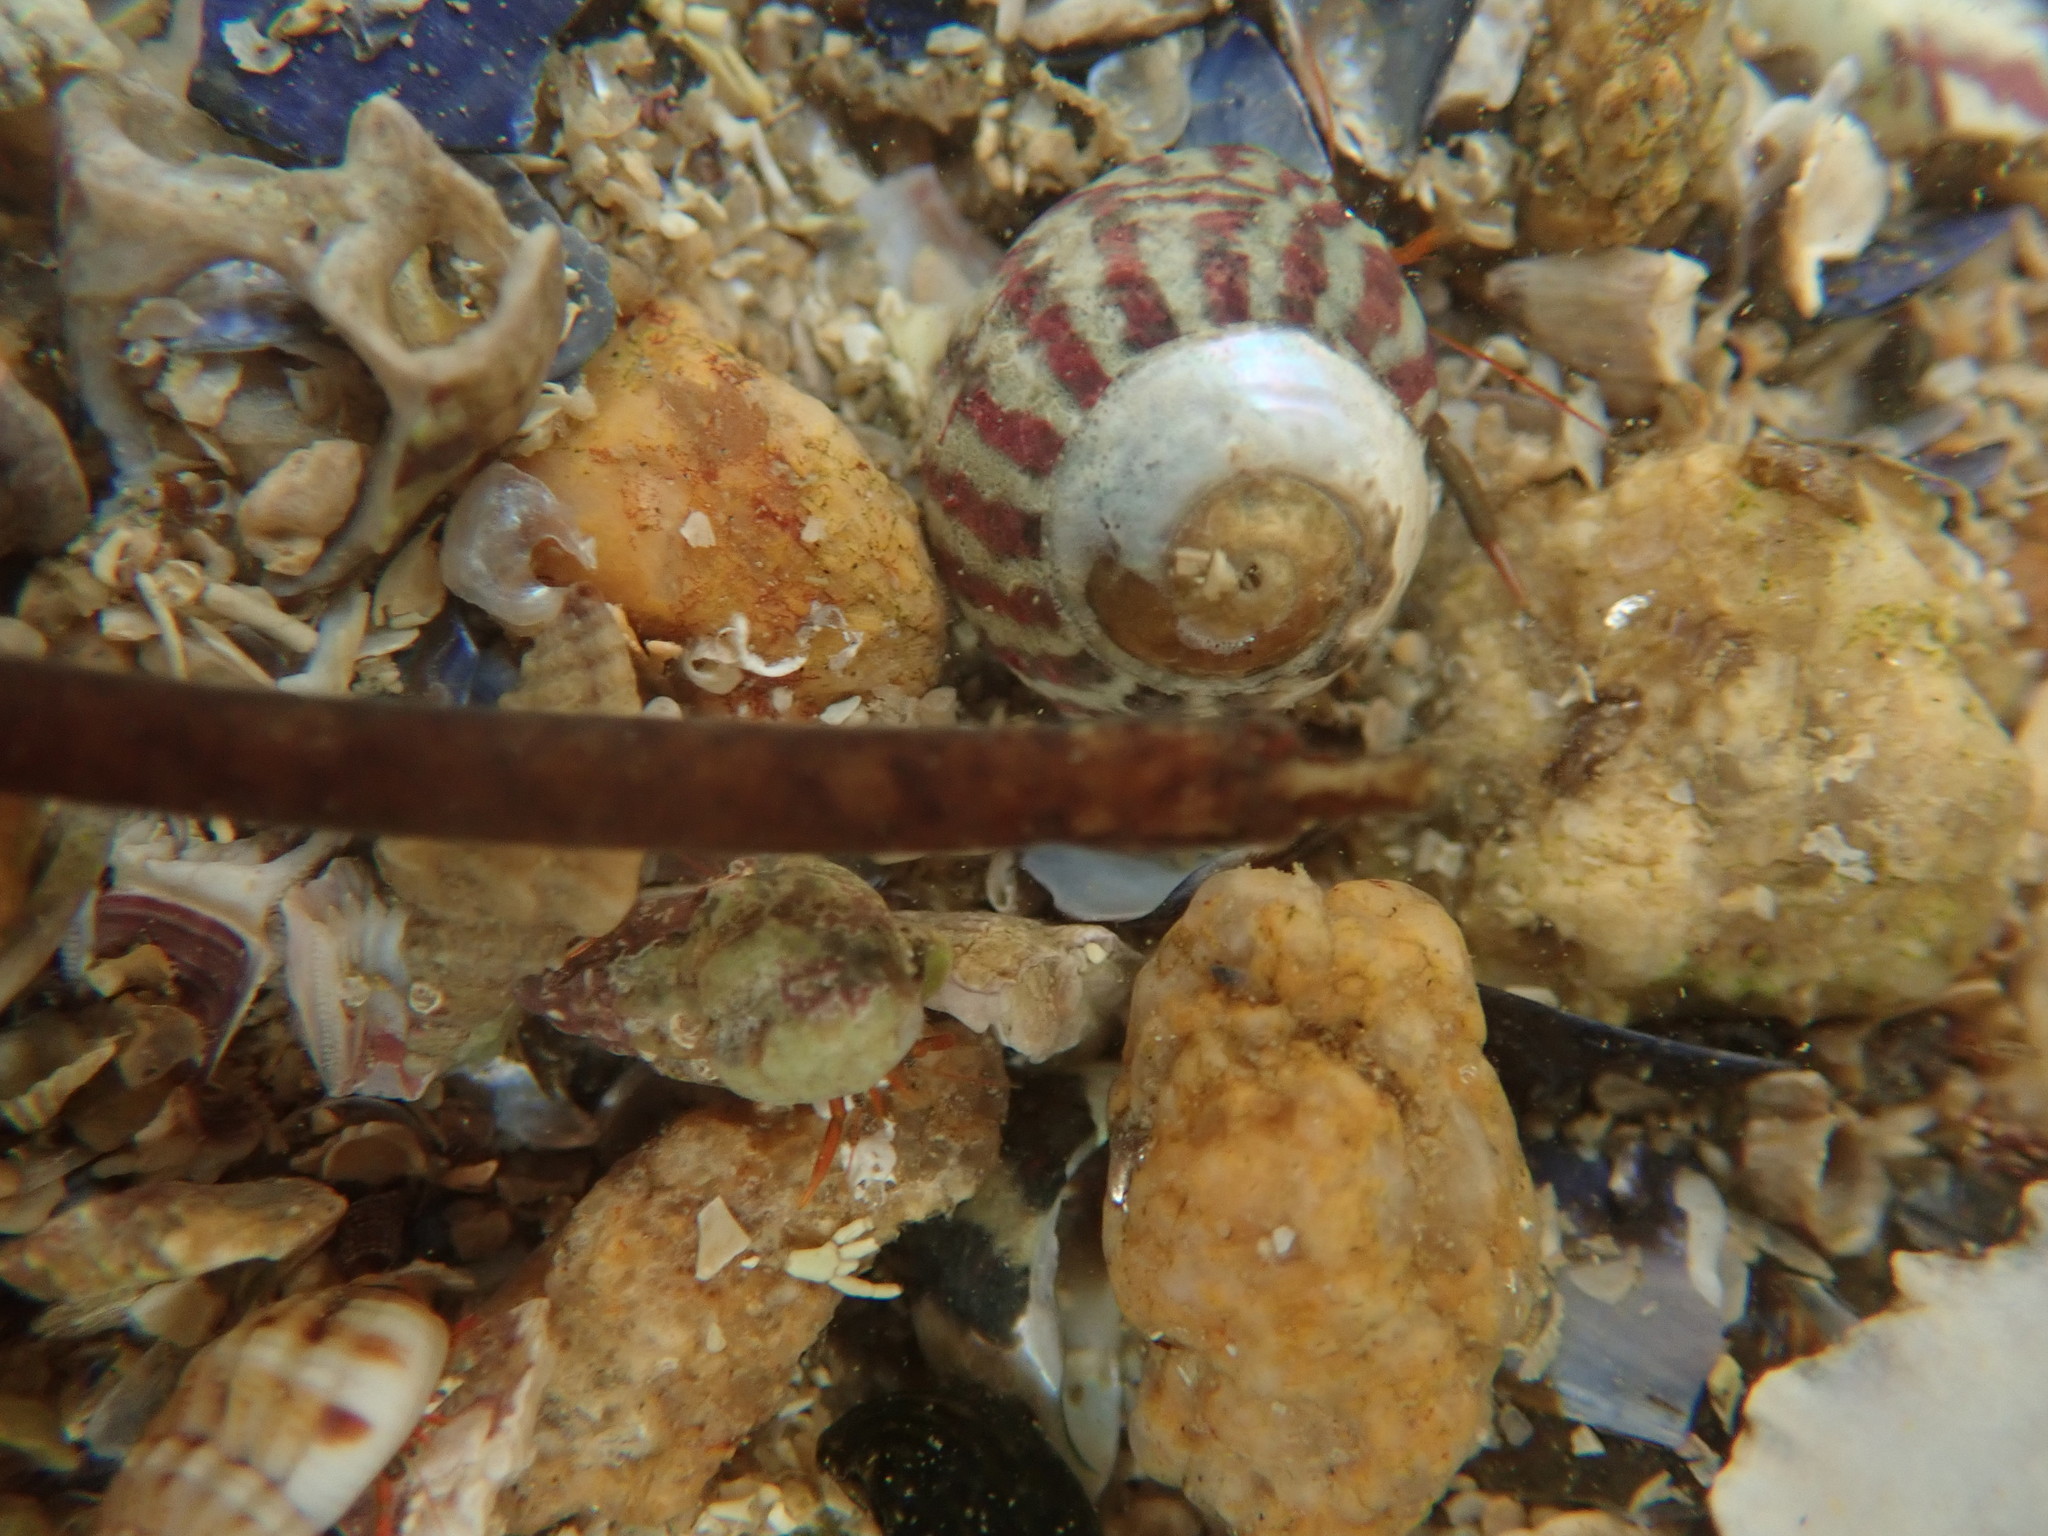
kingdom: Animalia
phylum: Chordata
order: Syngnathiformes
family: Syngnathidae
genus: Nerophis
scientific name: Nerophis lumbriciformis
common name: Worm pipefish
